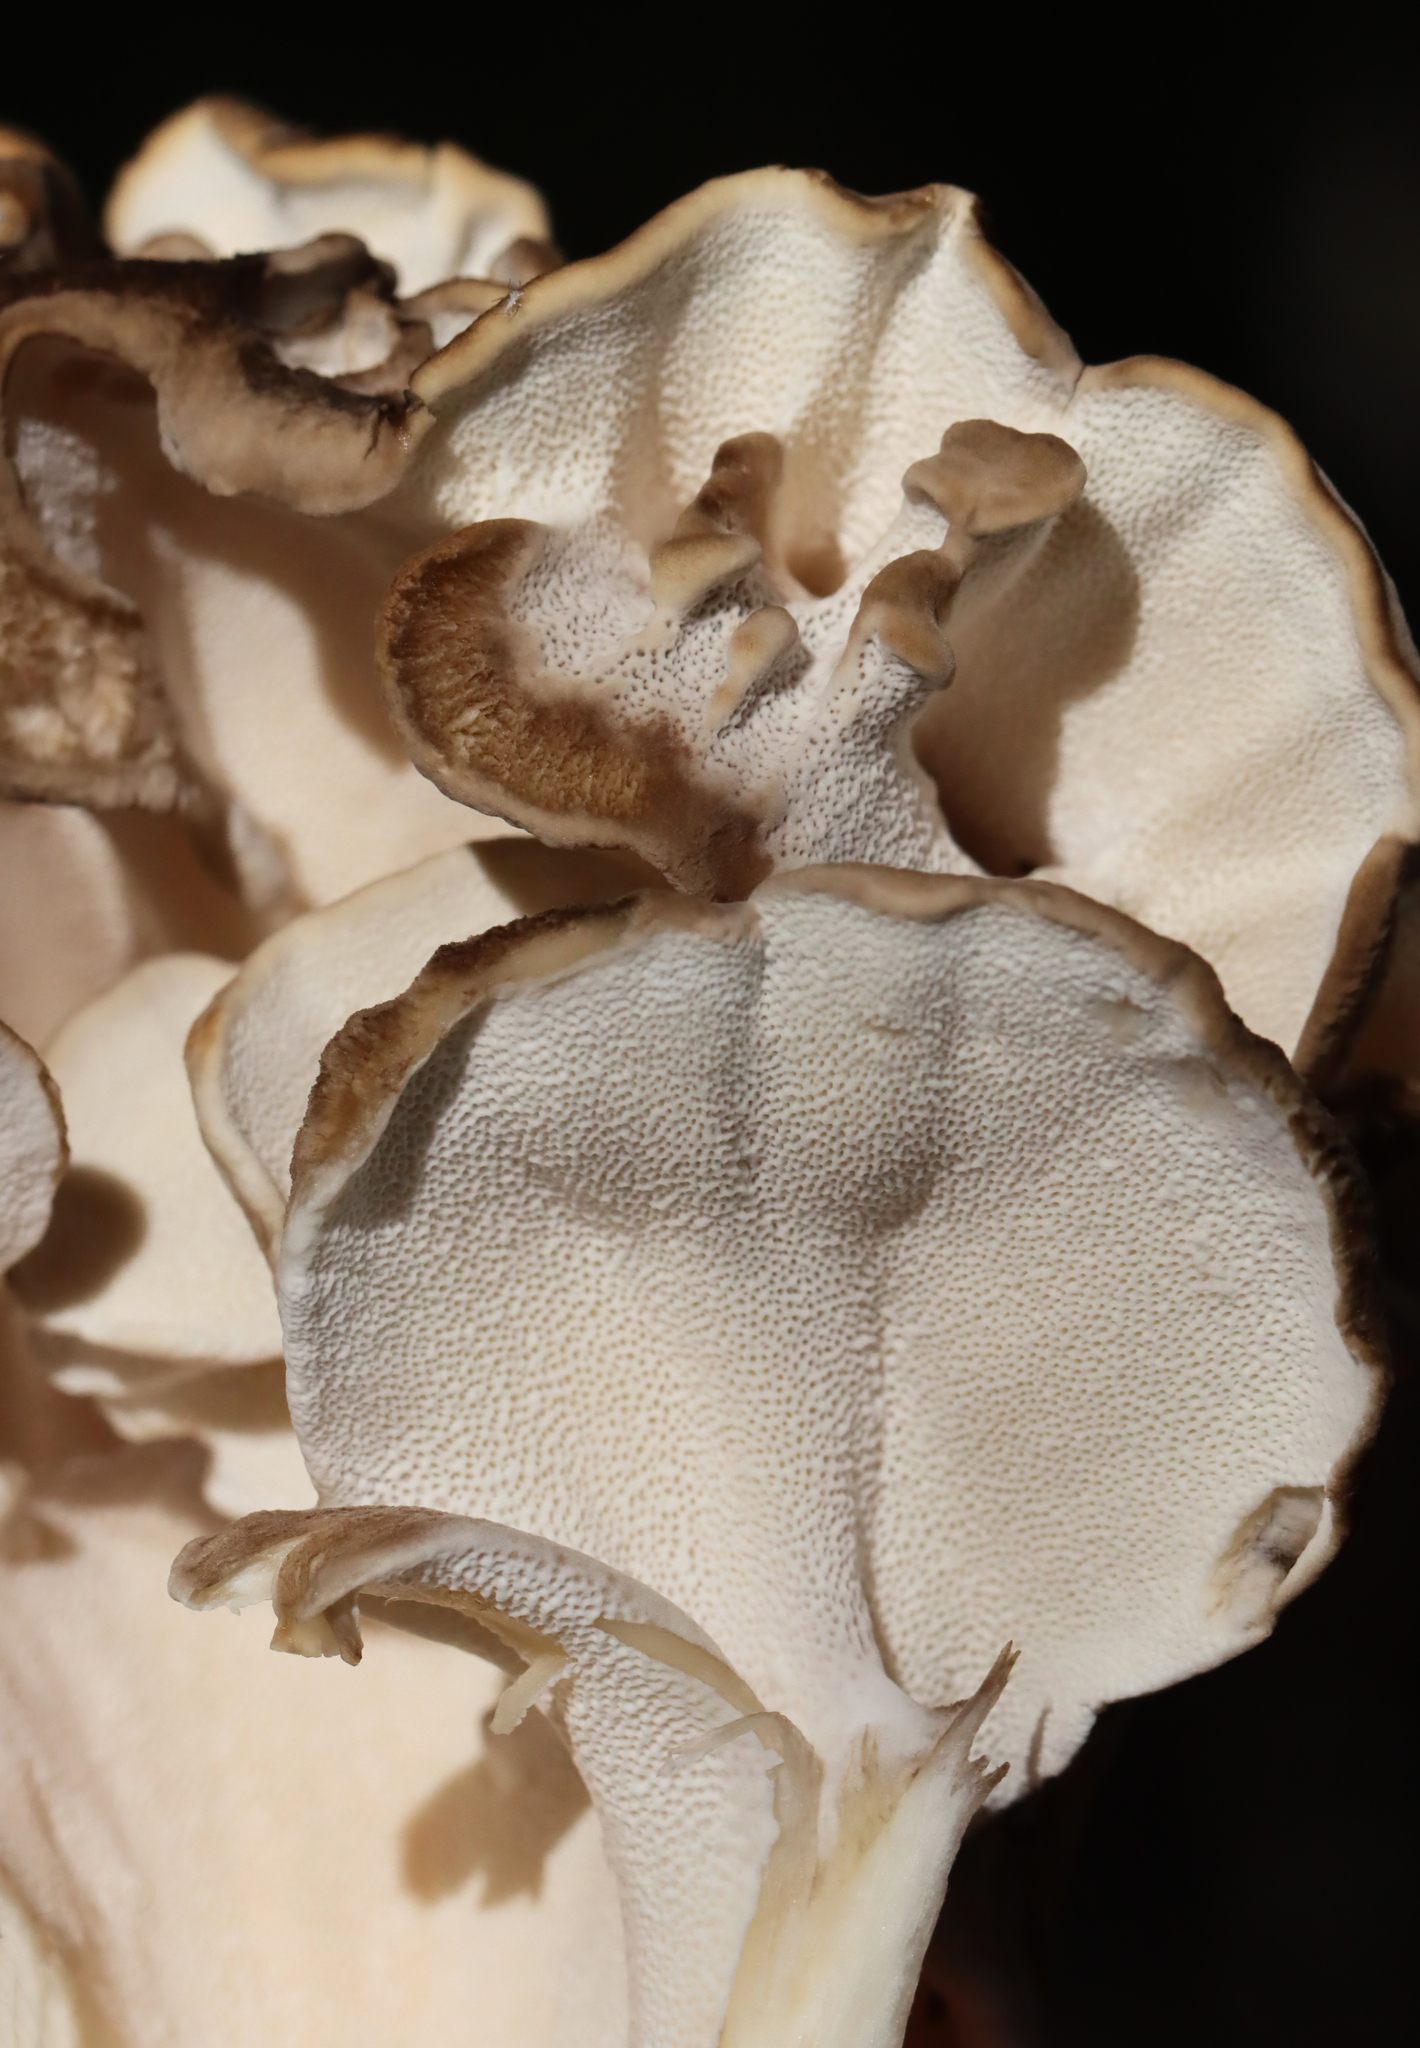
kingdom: Fungi
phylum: Basidiomycota
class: Agaricomycetes
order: Polyporales
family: Grifolaceae
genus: Grifola
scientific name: Grifola frondosa
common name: Hen of the woods
